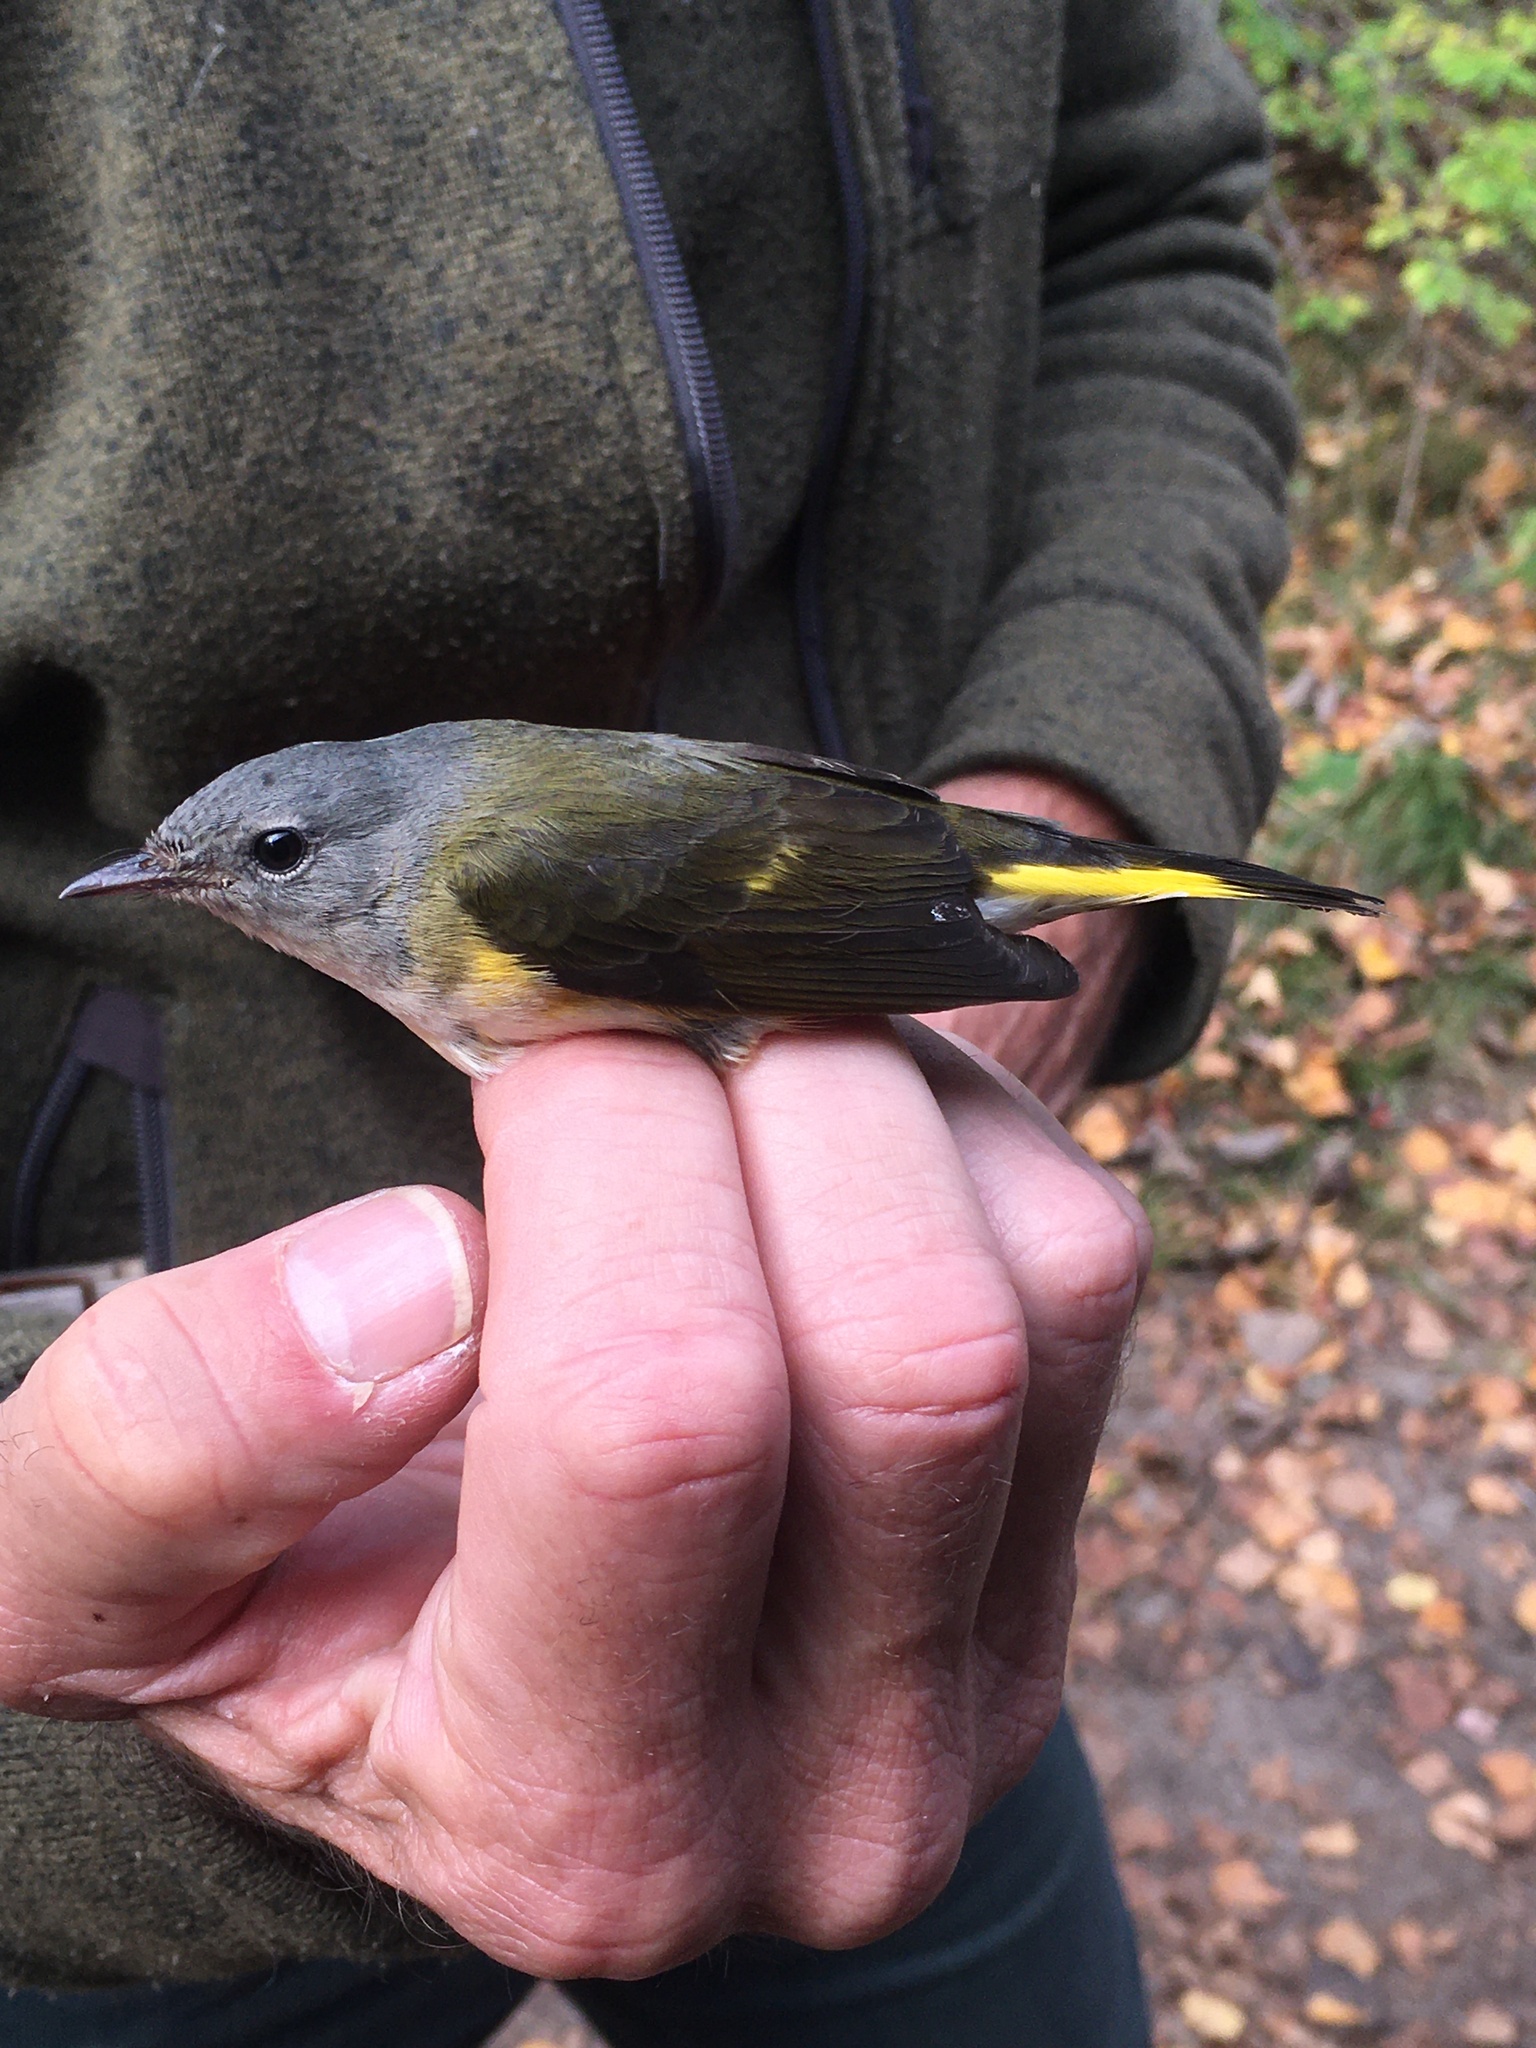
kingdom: Animalia
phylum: Chordata
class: Aves
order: Passeriformes
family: Parulidae
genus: Setophaga
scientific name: Setophaga ruticilla
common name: American redstart
